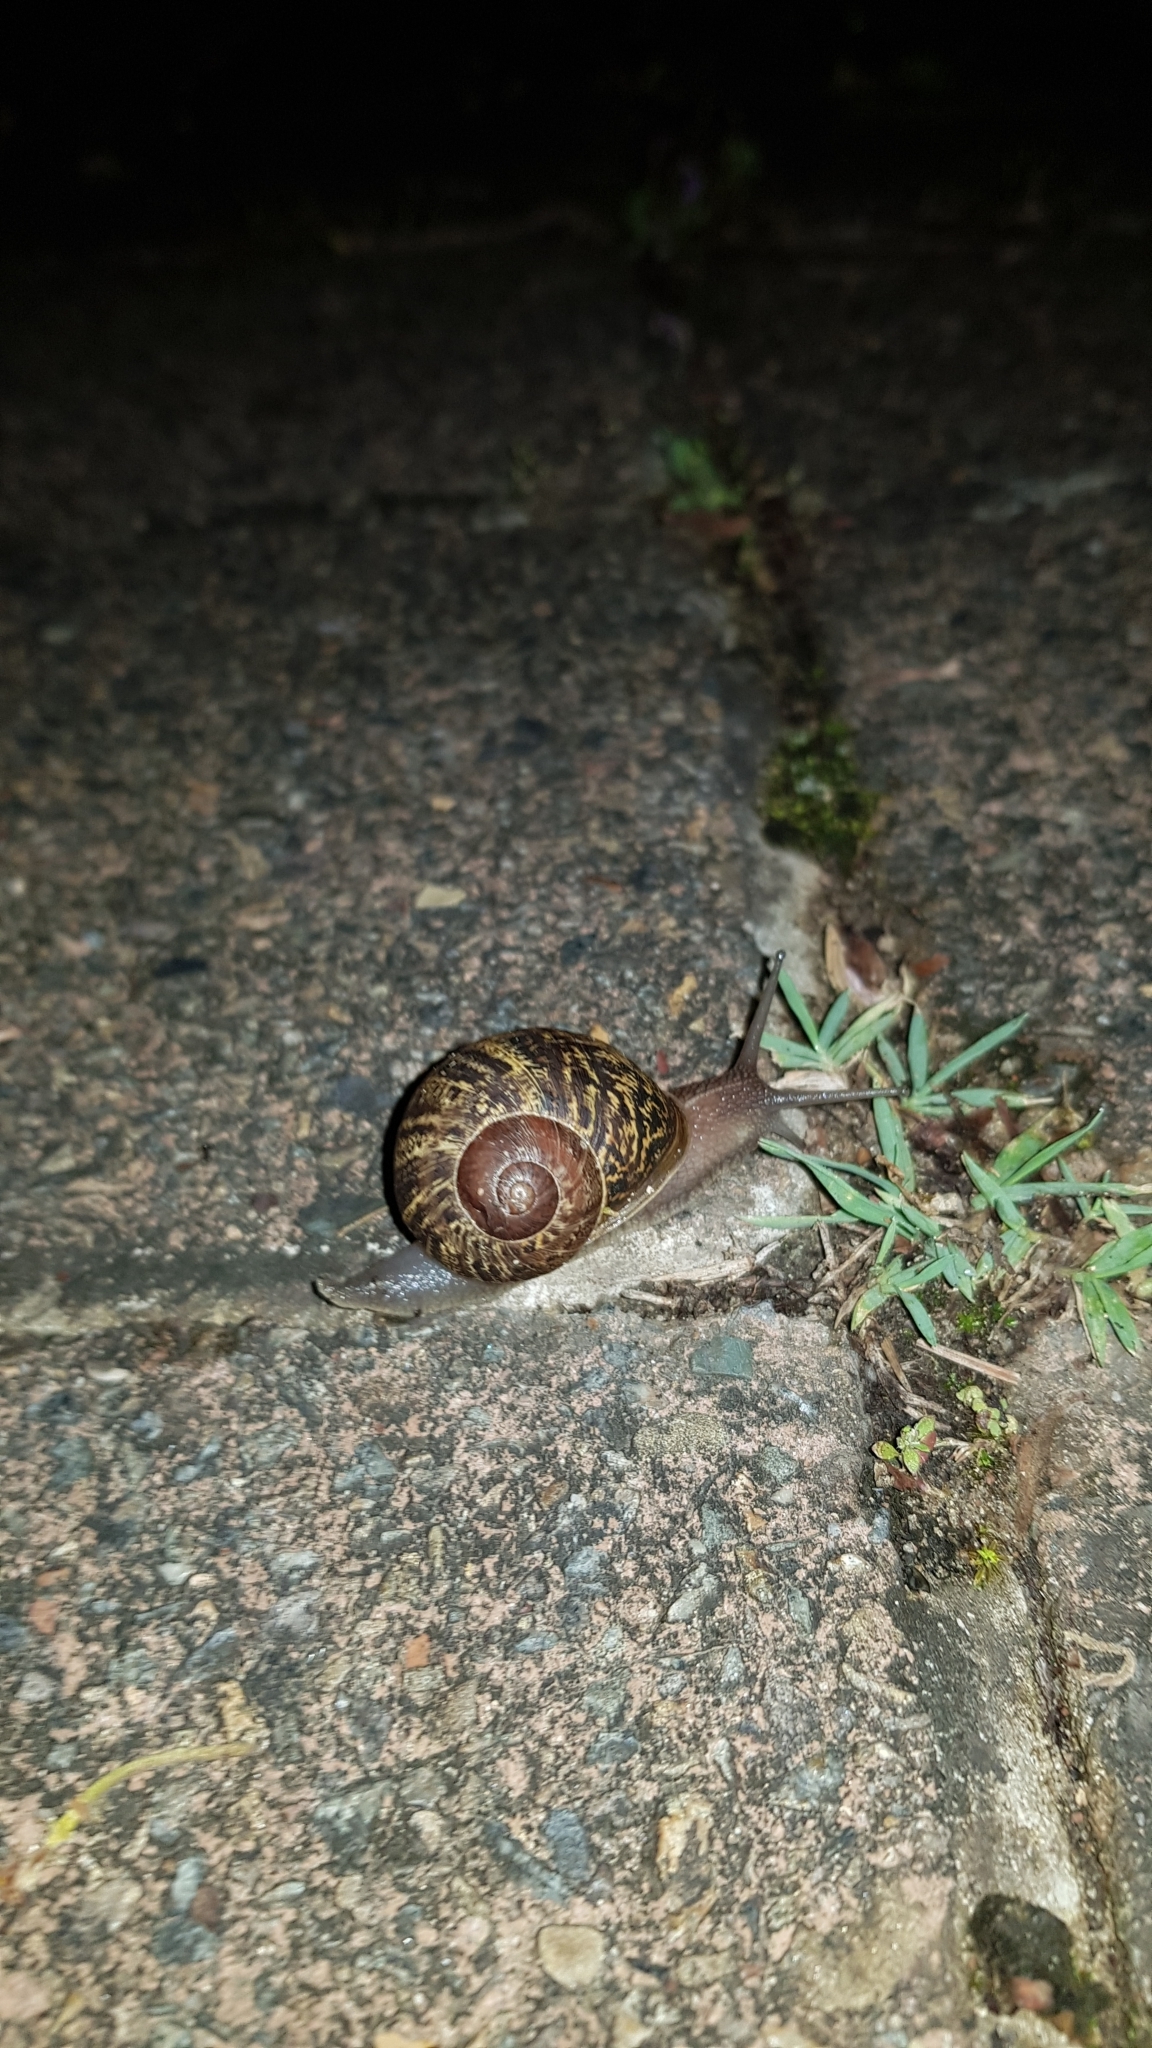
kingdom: Animalia
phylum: Mollusca
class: Gastropoda
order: Stylommatophora
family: Helicidae
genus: Cornu
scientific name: Cornu aspersum
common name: Brown garden snail
